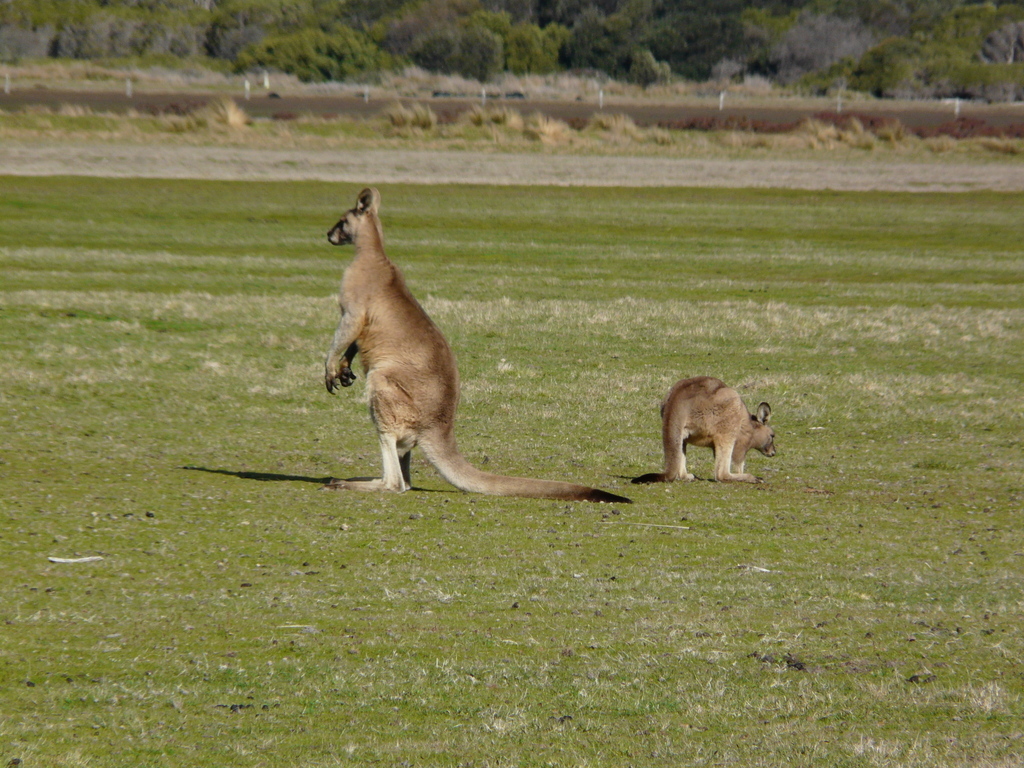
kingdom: Animalia
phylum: Chordata
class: Mammalia
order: Diprotodontia
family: Macropodidae
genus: Macropus
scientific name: Macropus giganteus
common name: Eastern grey kangaroo
